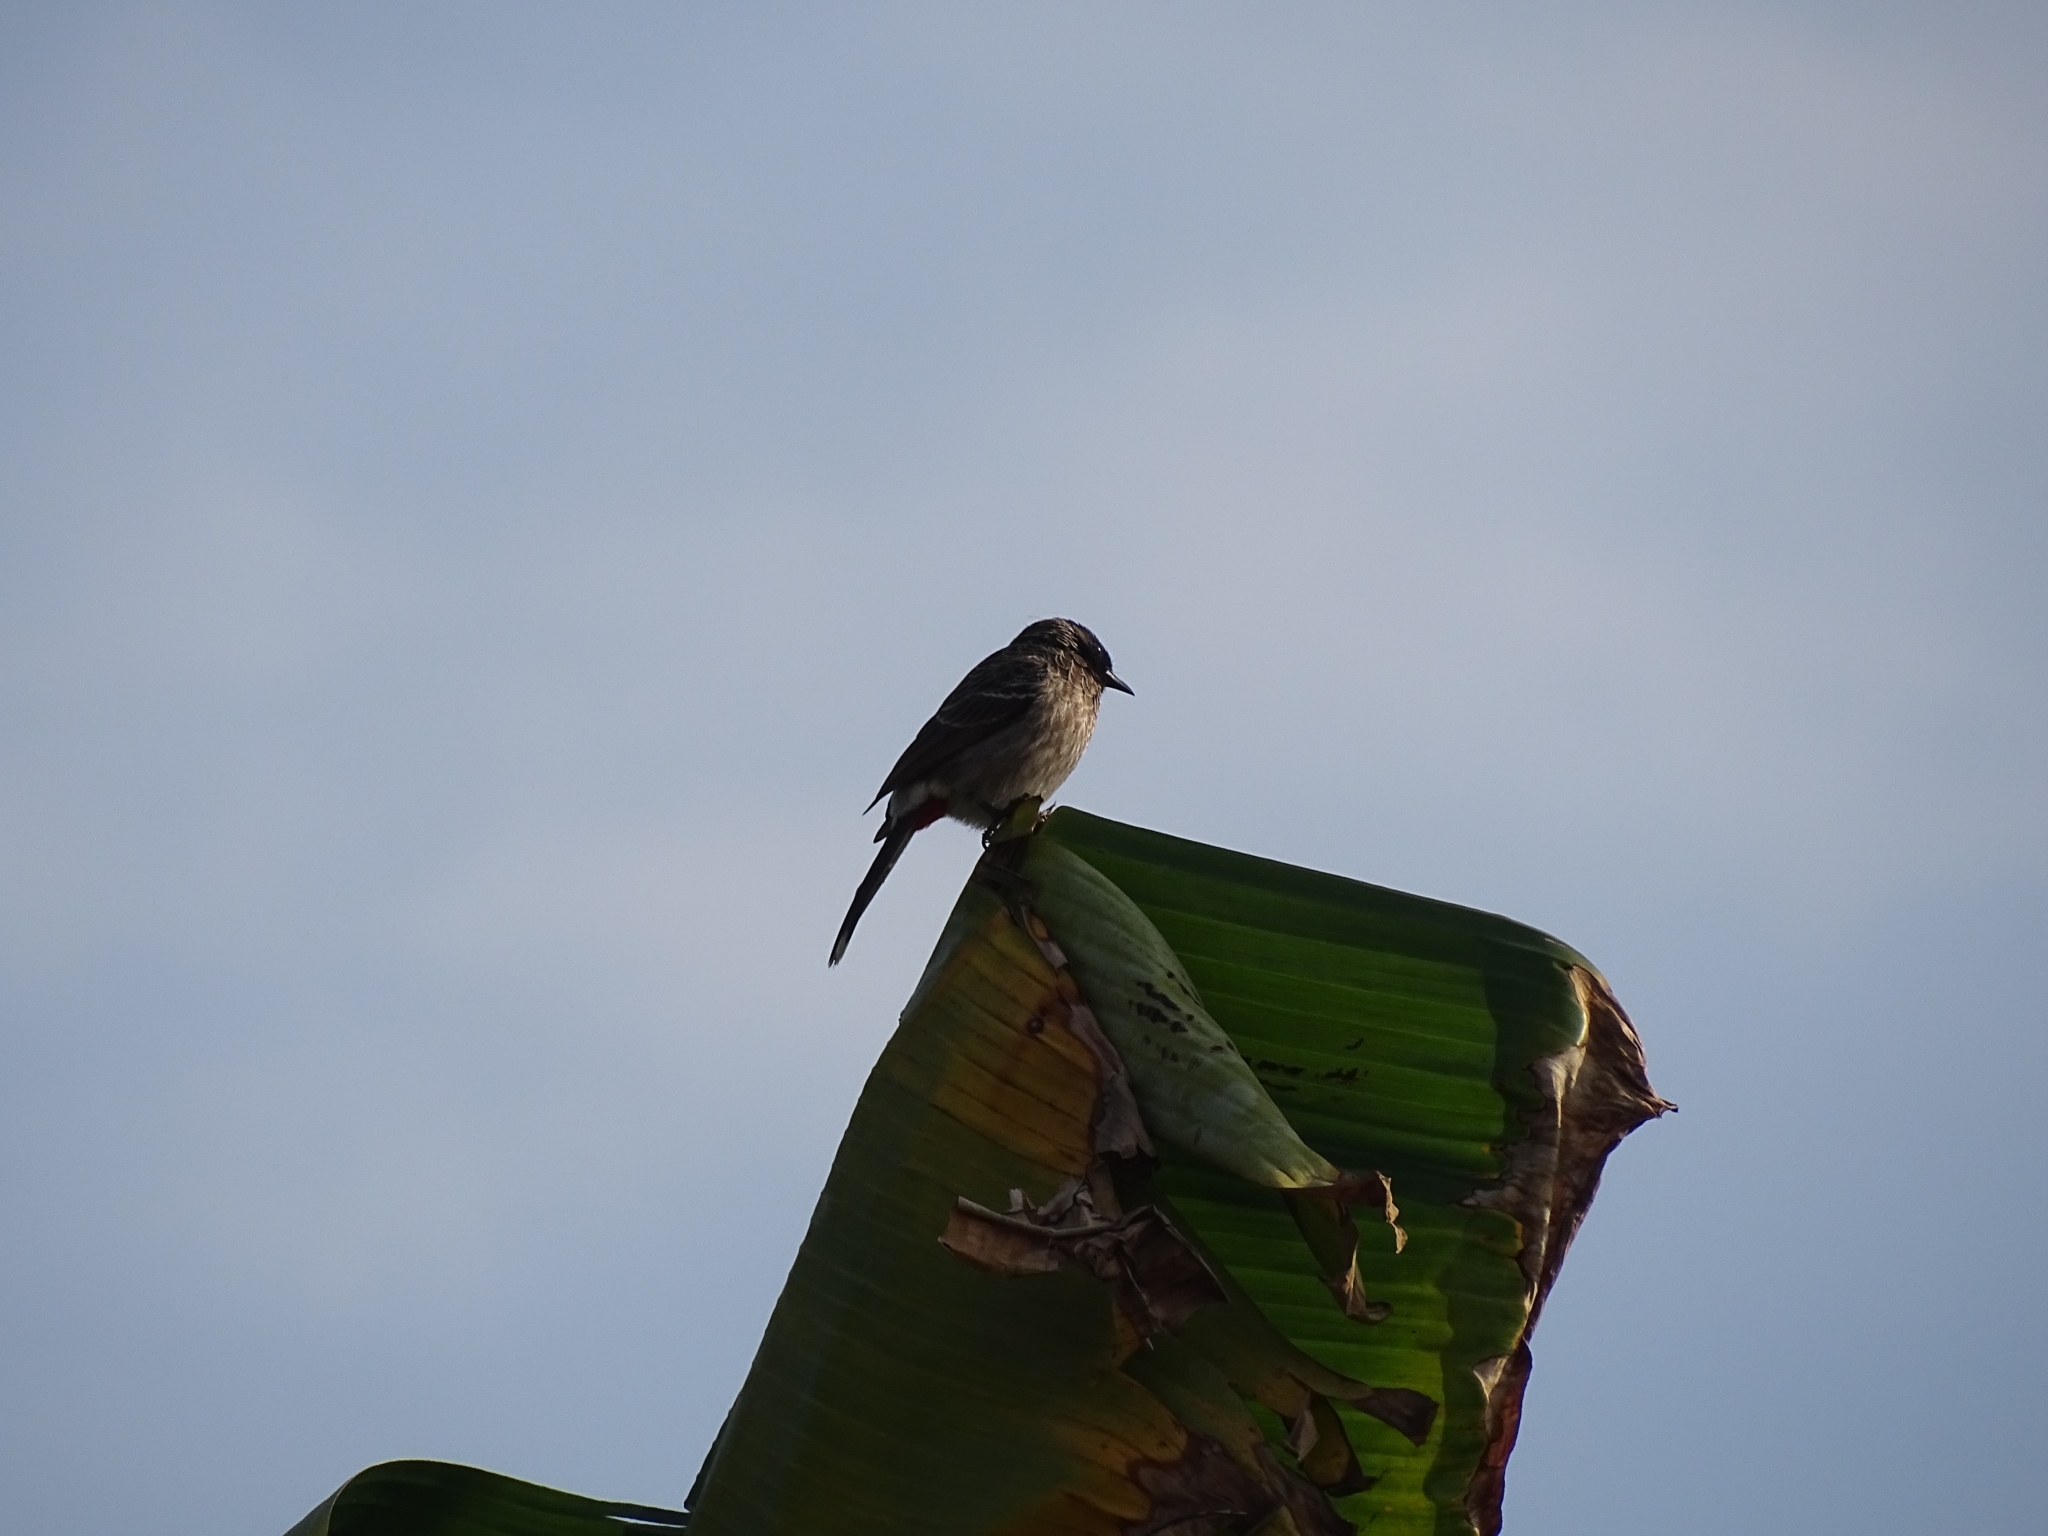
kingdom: Animalia
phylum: Chordata
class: Aves
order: Passeriformes
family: Pycnonotidae
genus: Pycnonotus
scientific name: Pycnonotus cafer
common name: Red-vented bulbul
